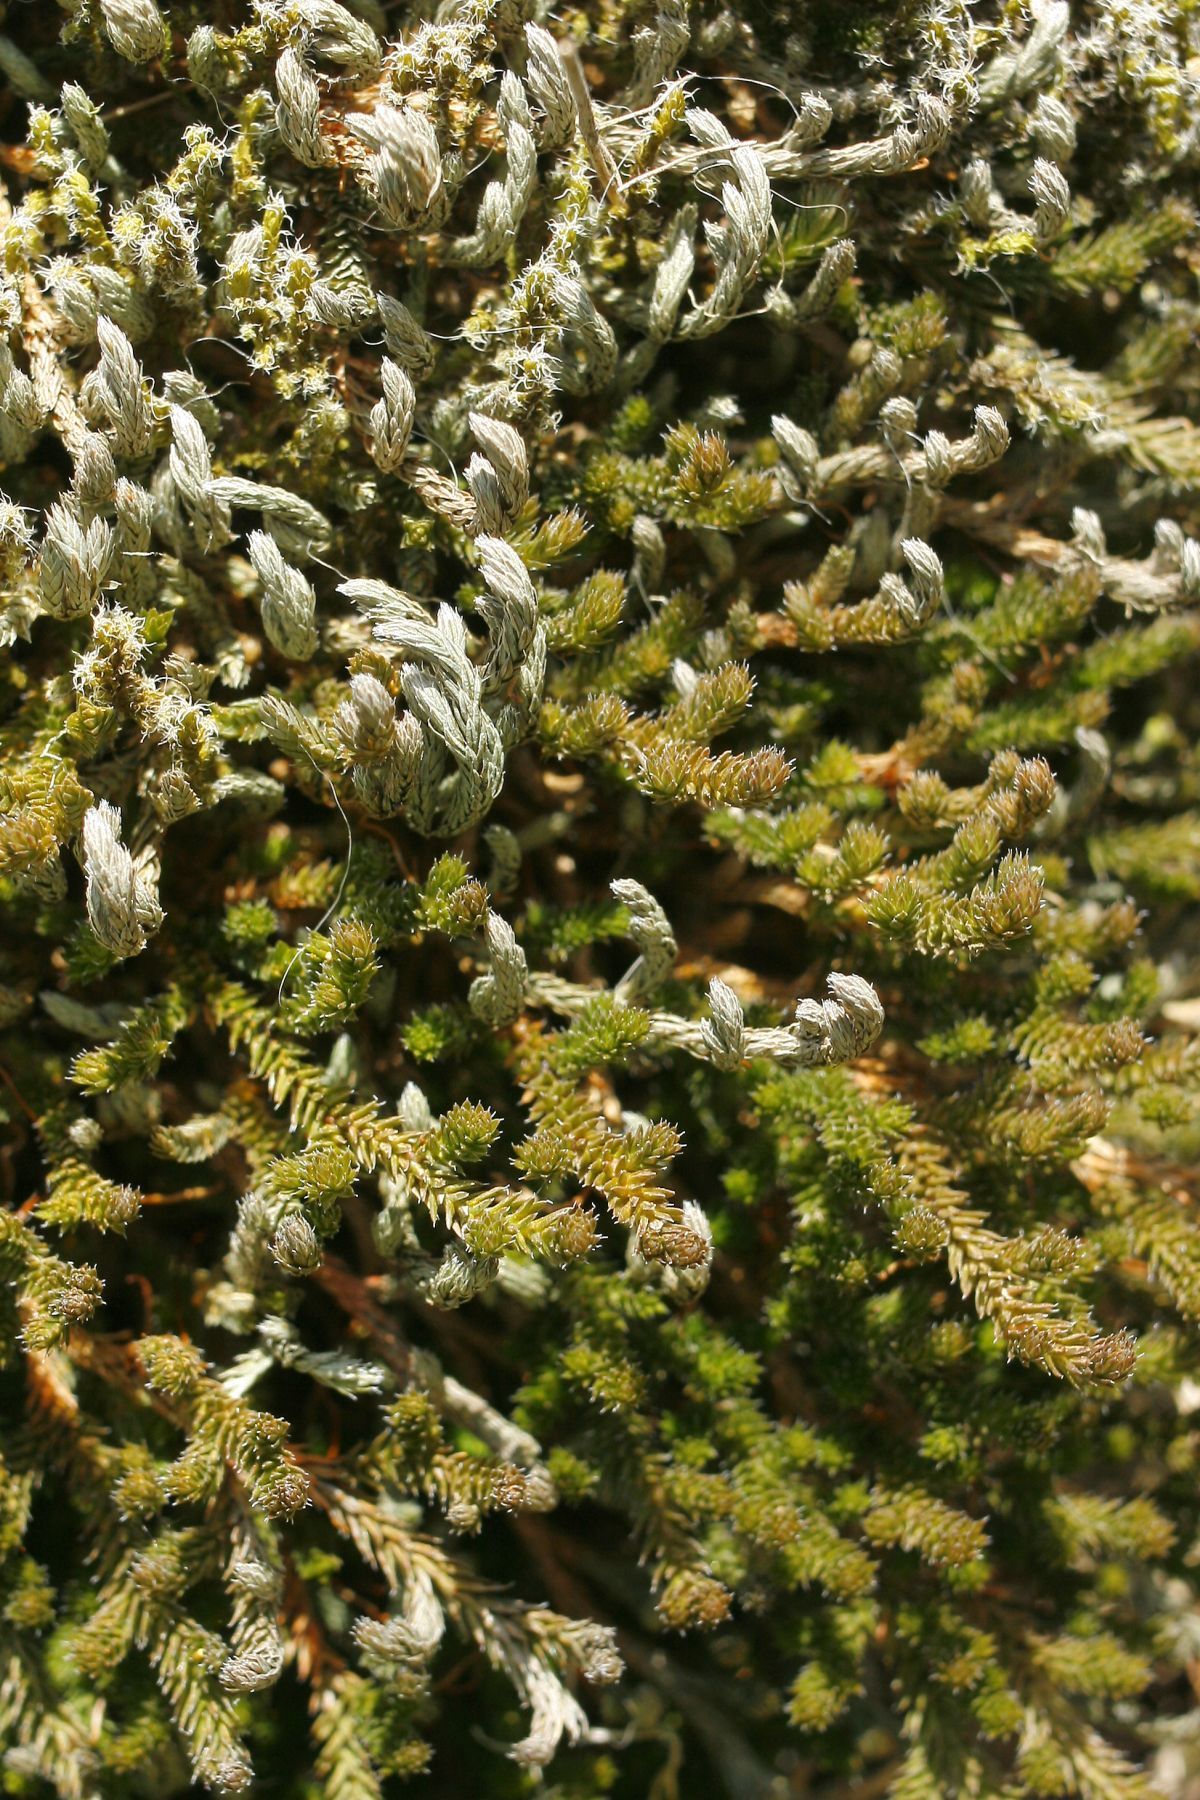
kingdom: Plantae
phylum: Tracheophyta
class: Lycopodiopsida
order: Selaginellales
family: Selaginellaceae
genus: Selaginella
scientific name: Selaginella wallacei
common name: Wallace's selaginella
